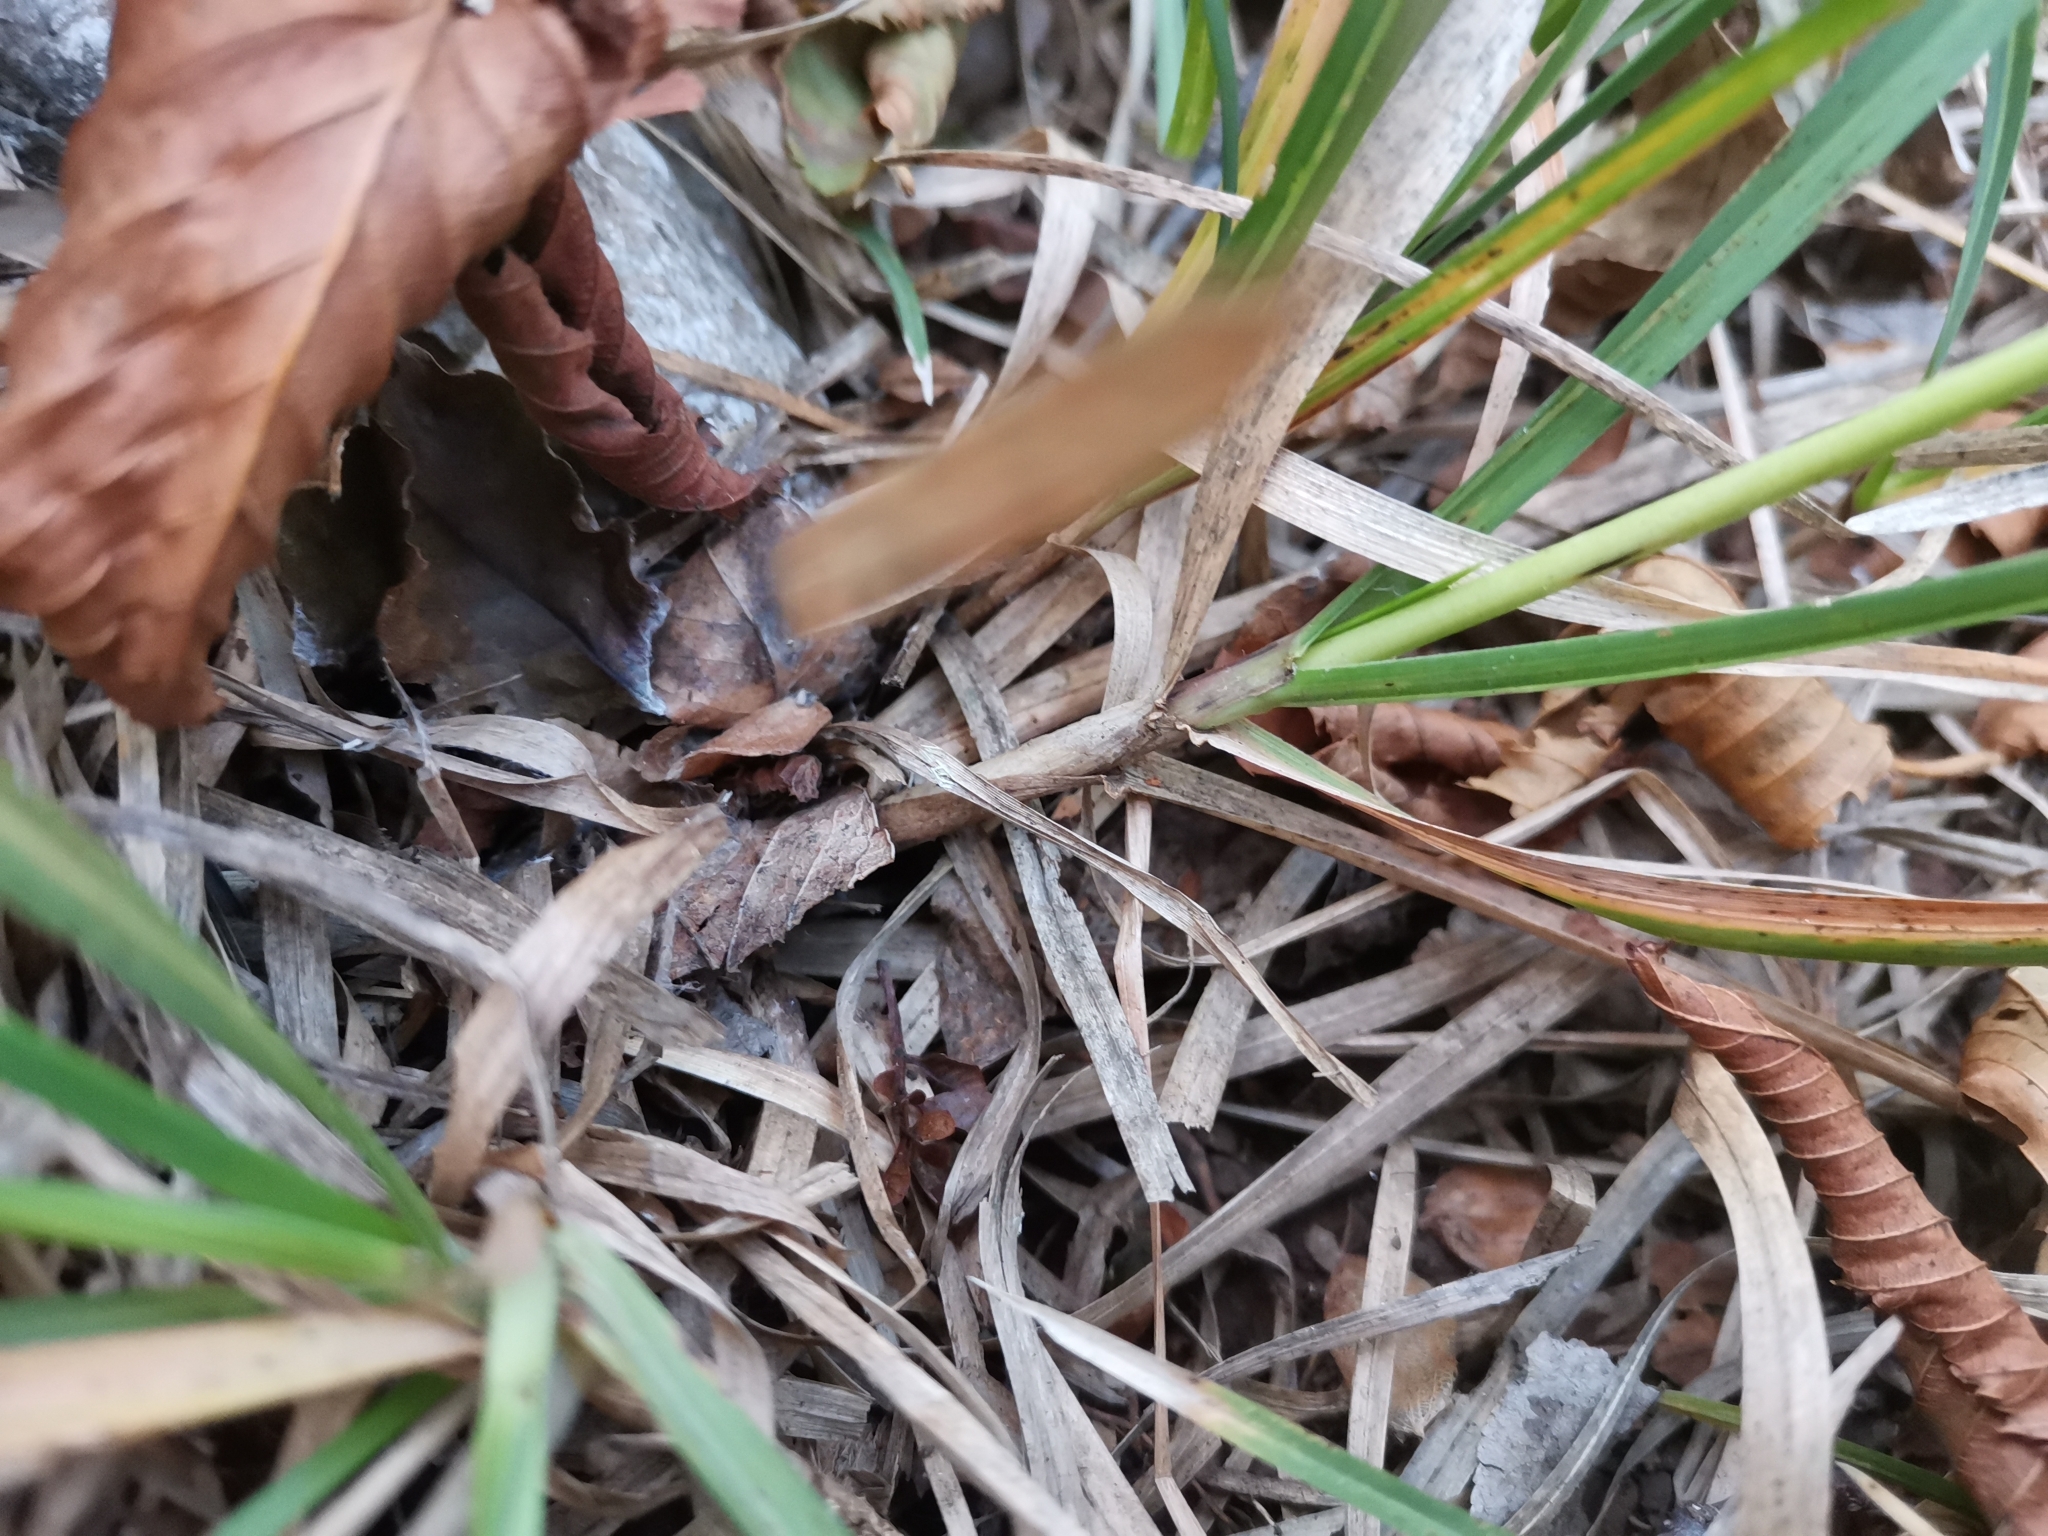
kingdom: Plantae
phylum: Tracheophyta
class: Liliopsida
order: Poales
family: Poaceae
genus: Sesleria
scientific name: Sesleria autumnalis
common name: Autumn moor grass
